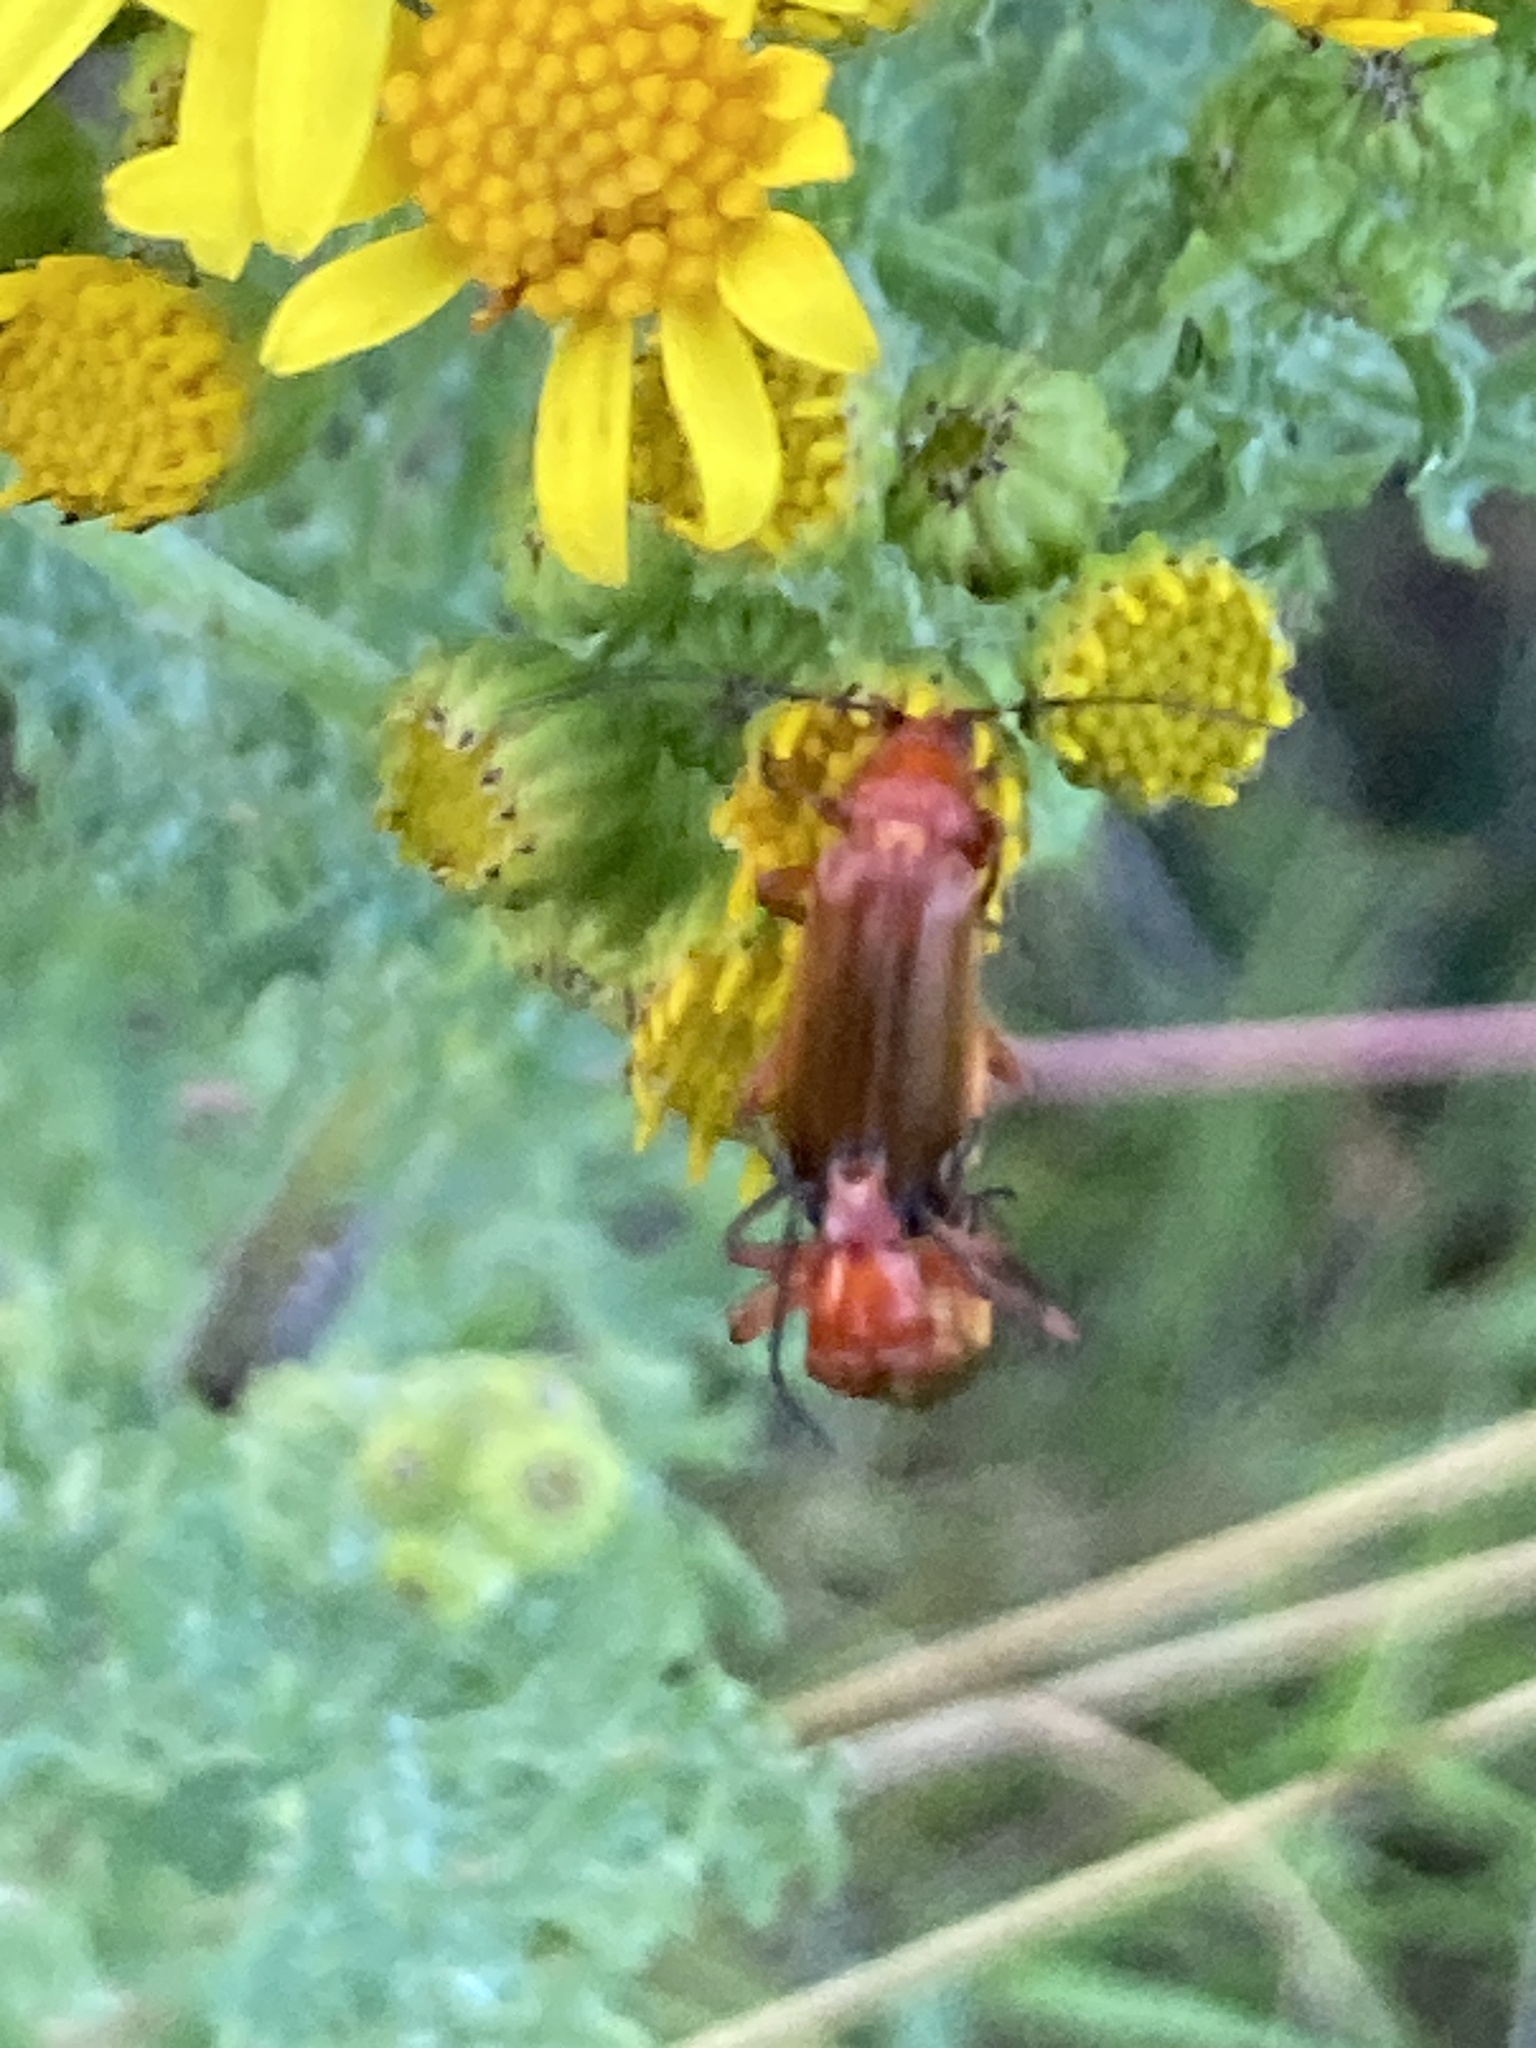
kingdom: Animalia
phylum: Arthropoda
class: Insecta
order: Coleoptera
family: Cantharidae
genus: Rhagonycha
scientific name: Rhagonycha fulva
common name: Common red soldier beetle
